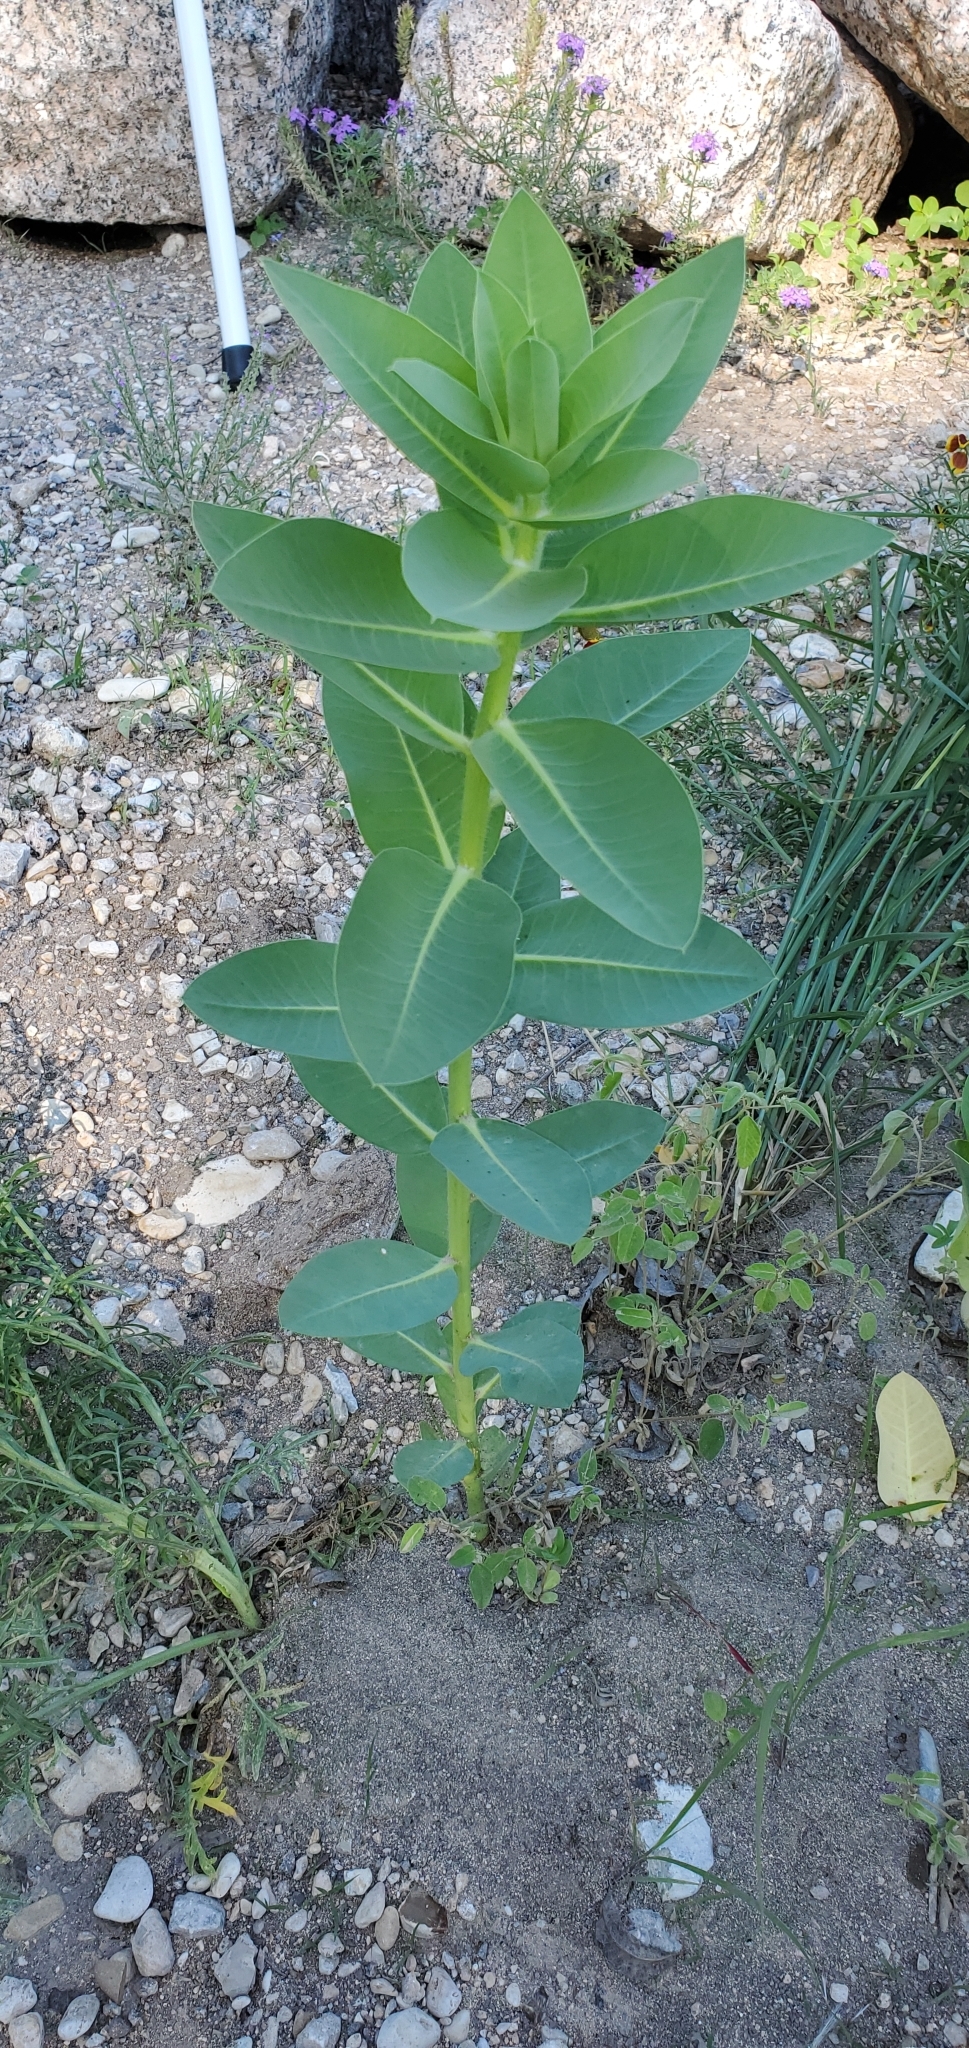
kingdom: Plantae
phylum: Tracheophyta
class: Magnoliopsida
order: Malpighiales
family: Euphorbiaceae
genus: Euphorbia
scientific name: Euphorbia marginata
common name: Ghostweed
